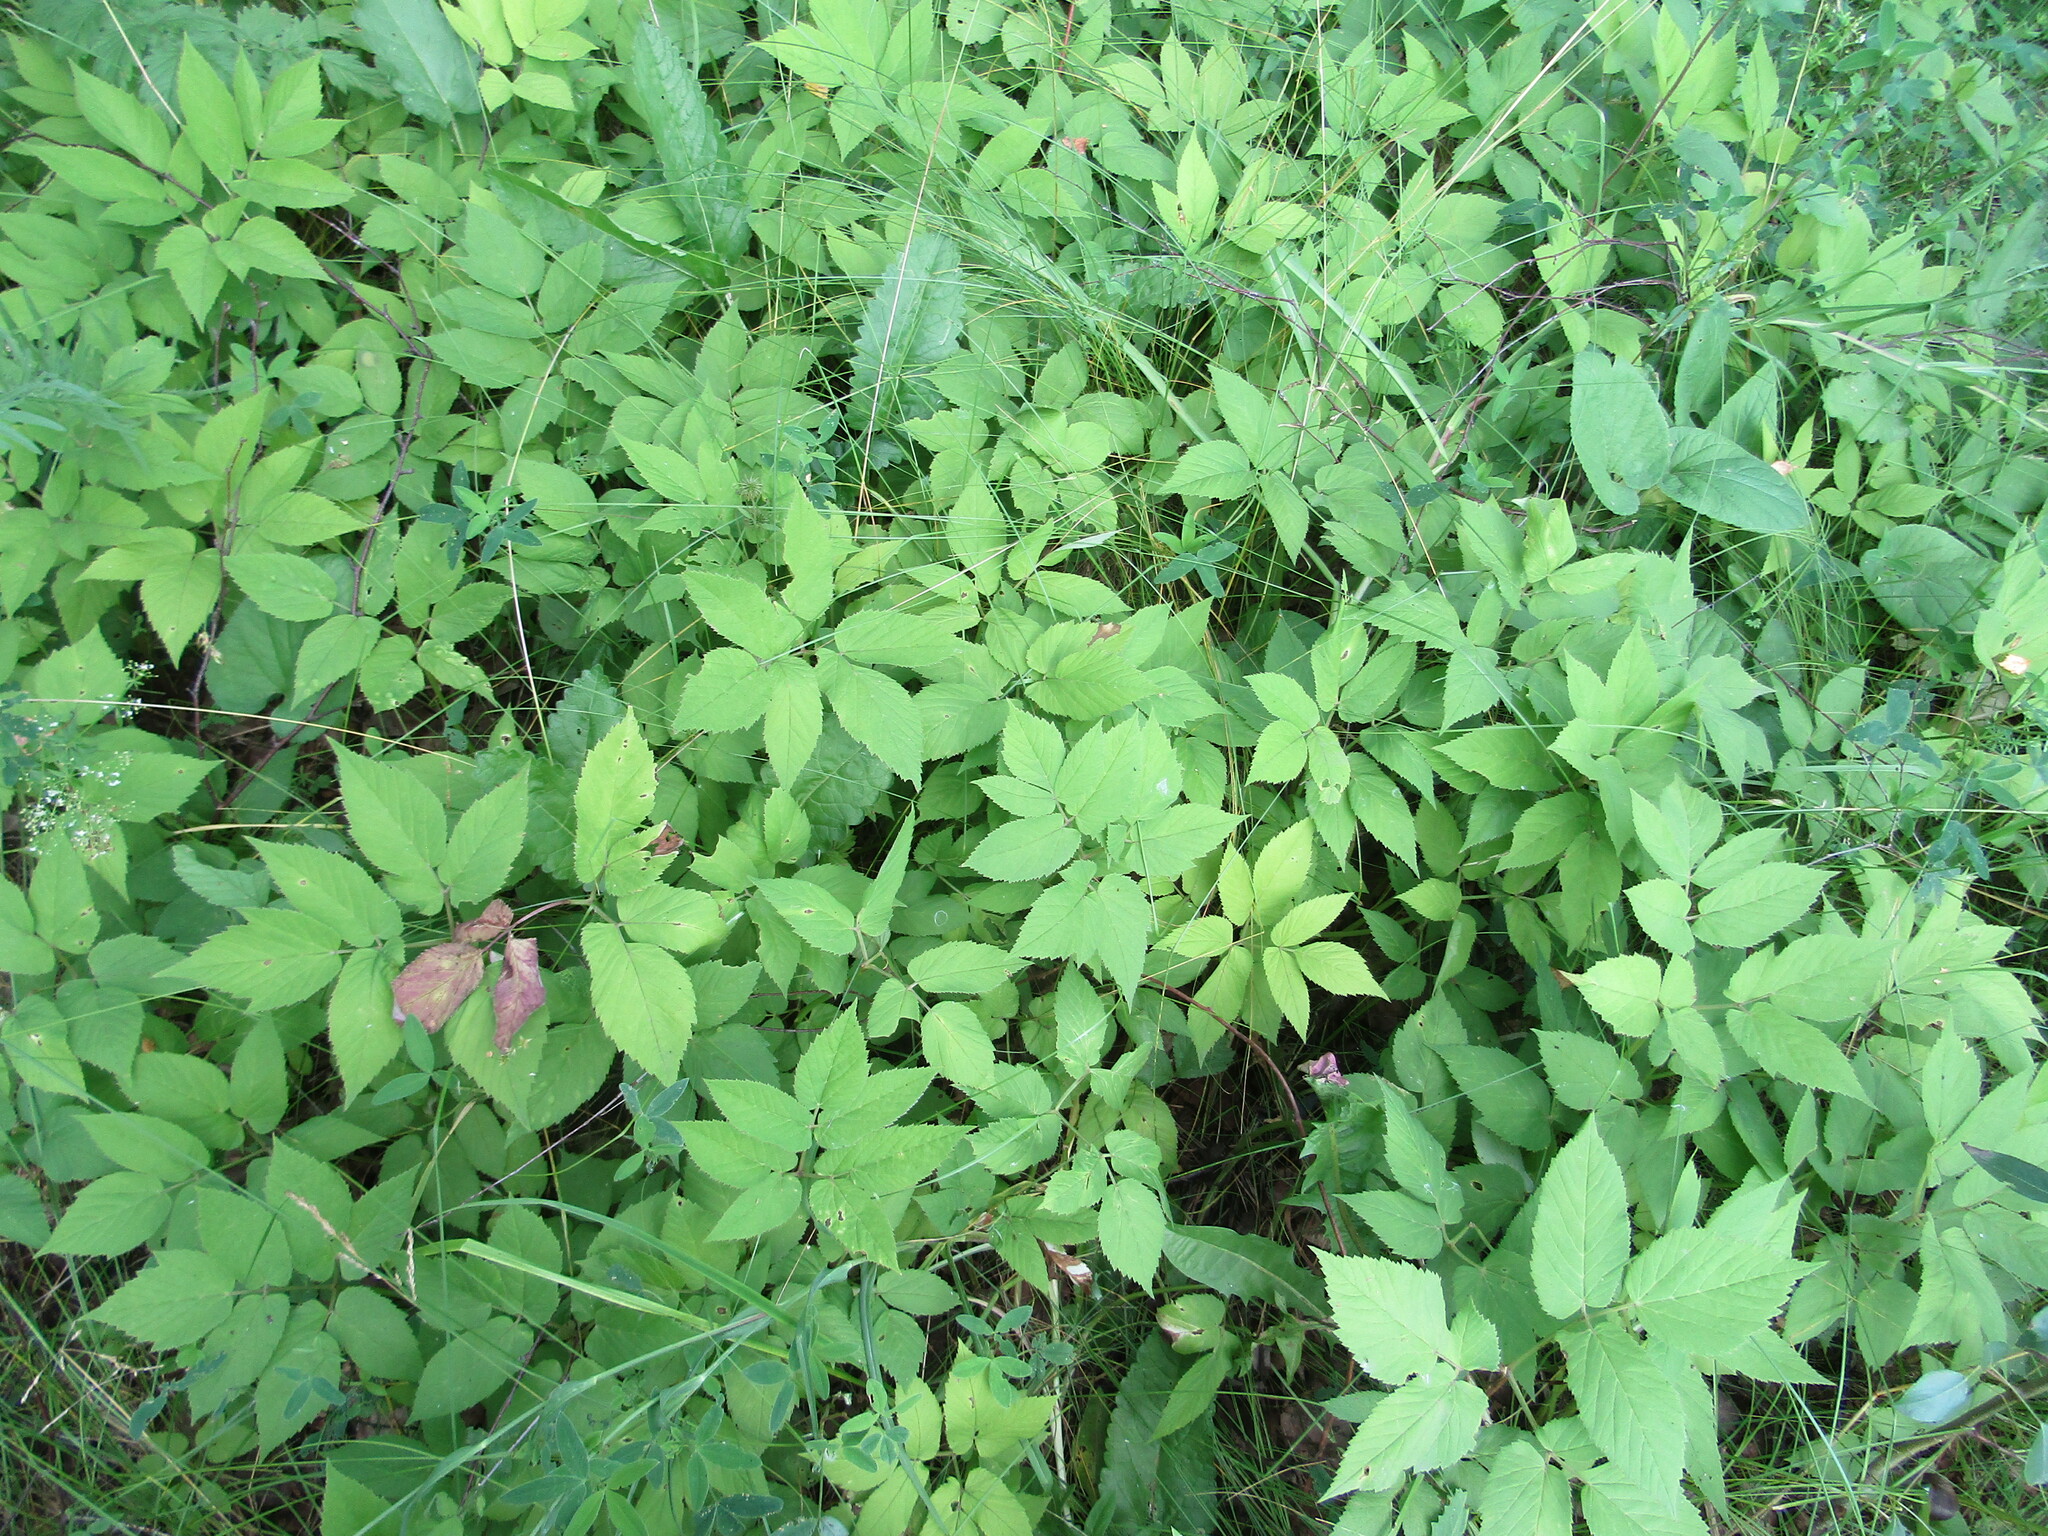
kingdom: Plantae
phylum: Tracheophyta
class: Magnoliopsida
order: Apiales
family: Apiaceae
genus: Aegopodium
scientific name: Aegopodium podagraria
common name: Ground-elder
